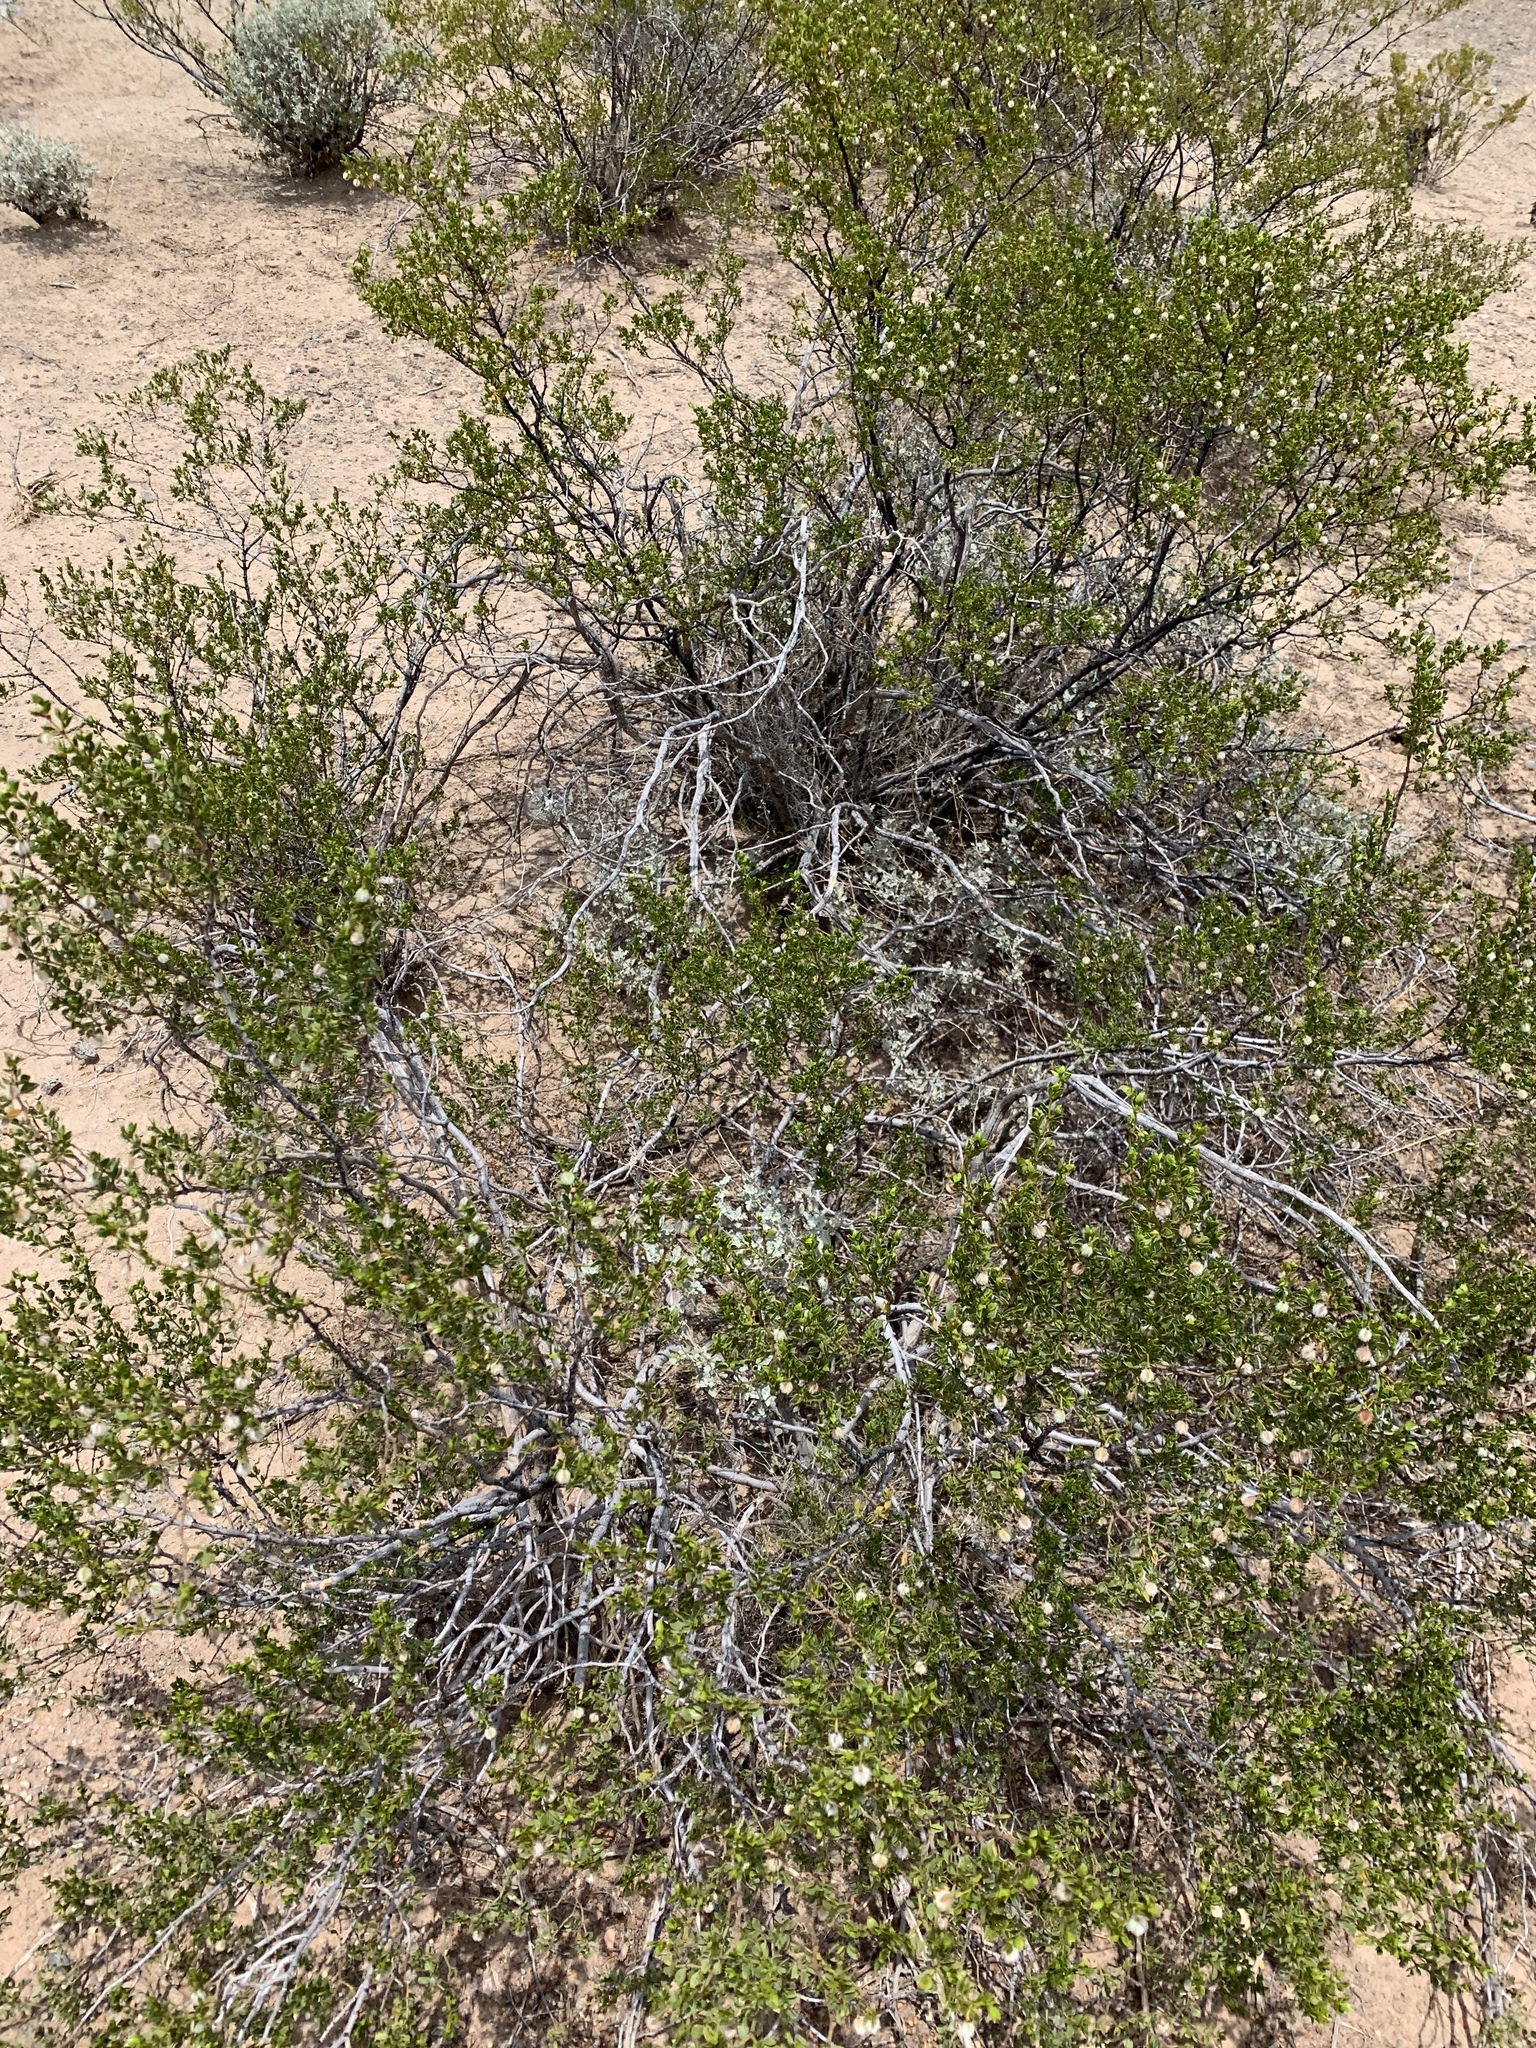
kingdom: Plantae
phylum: Tracheophyta
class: Magnoliopsida
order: Zygophyllales
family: Zygophyllaceae
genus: Larrea
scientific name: Larrea tridentata
